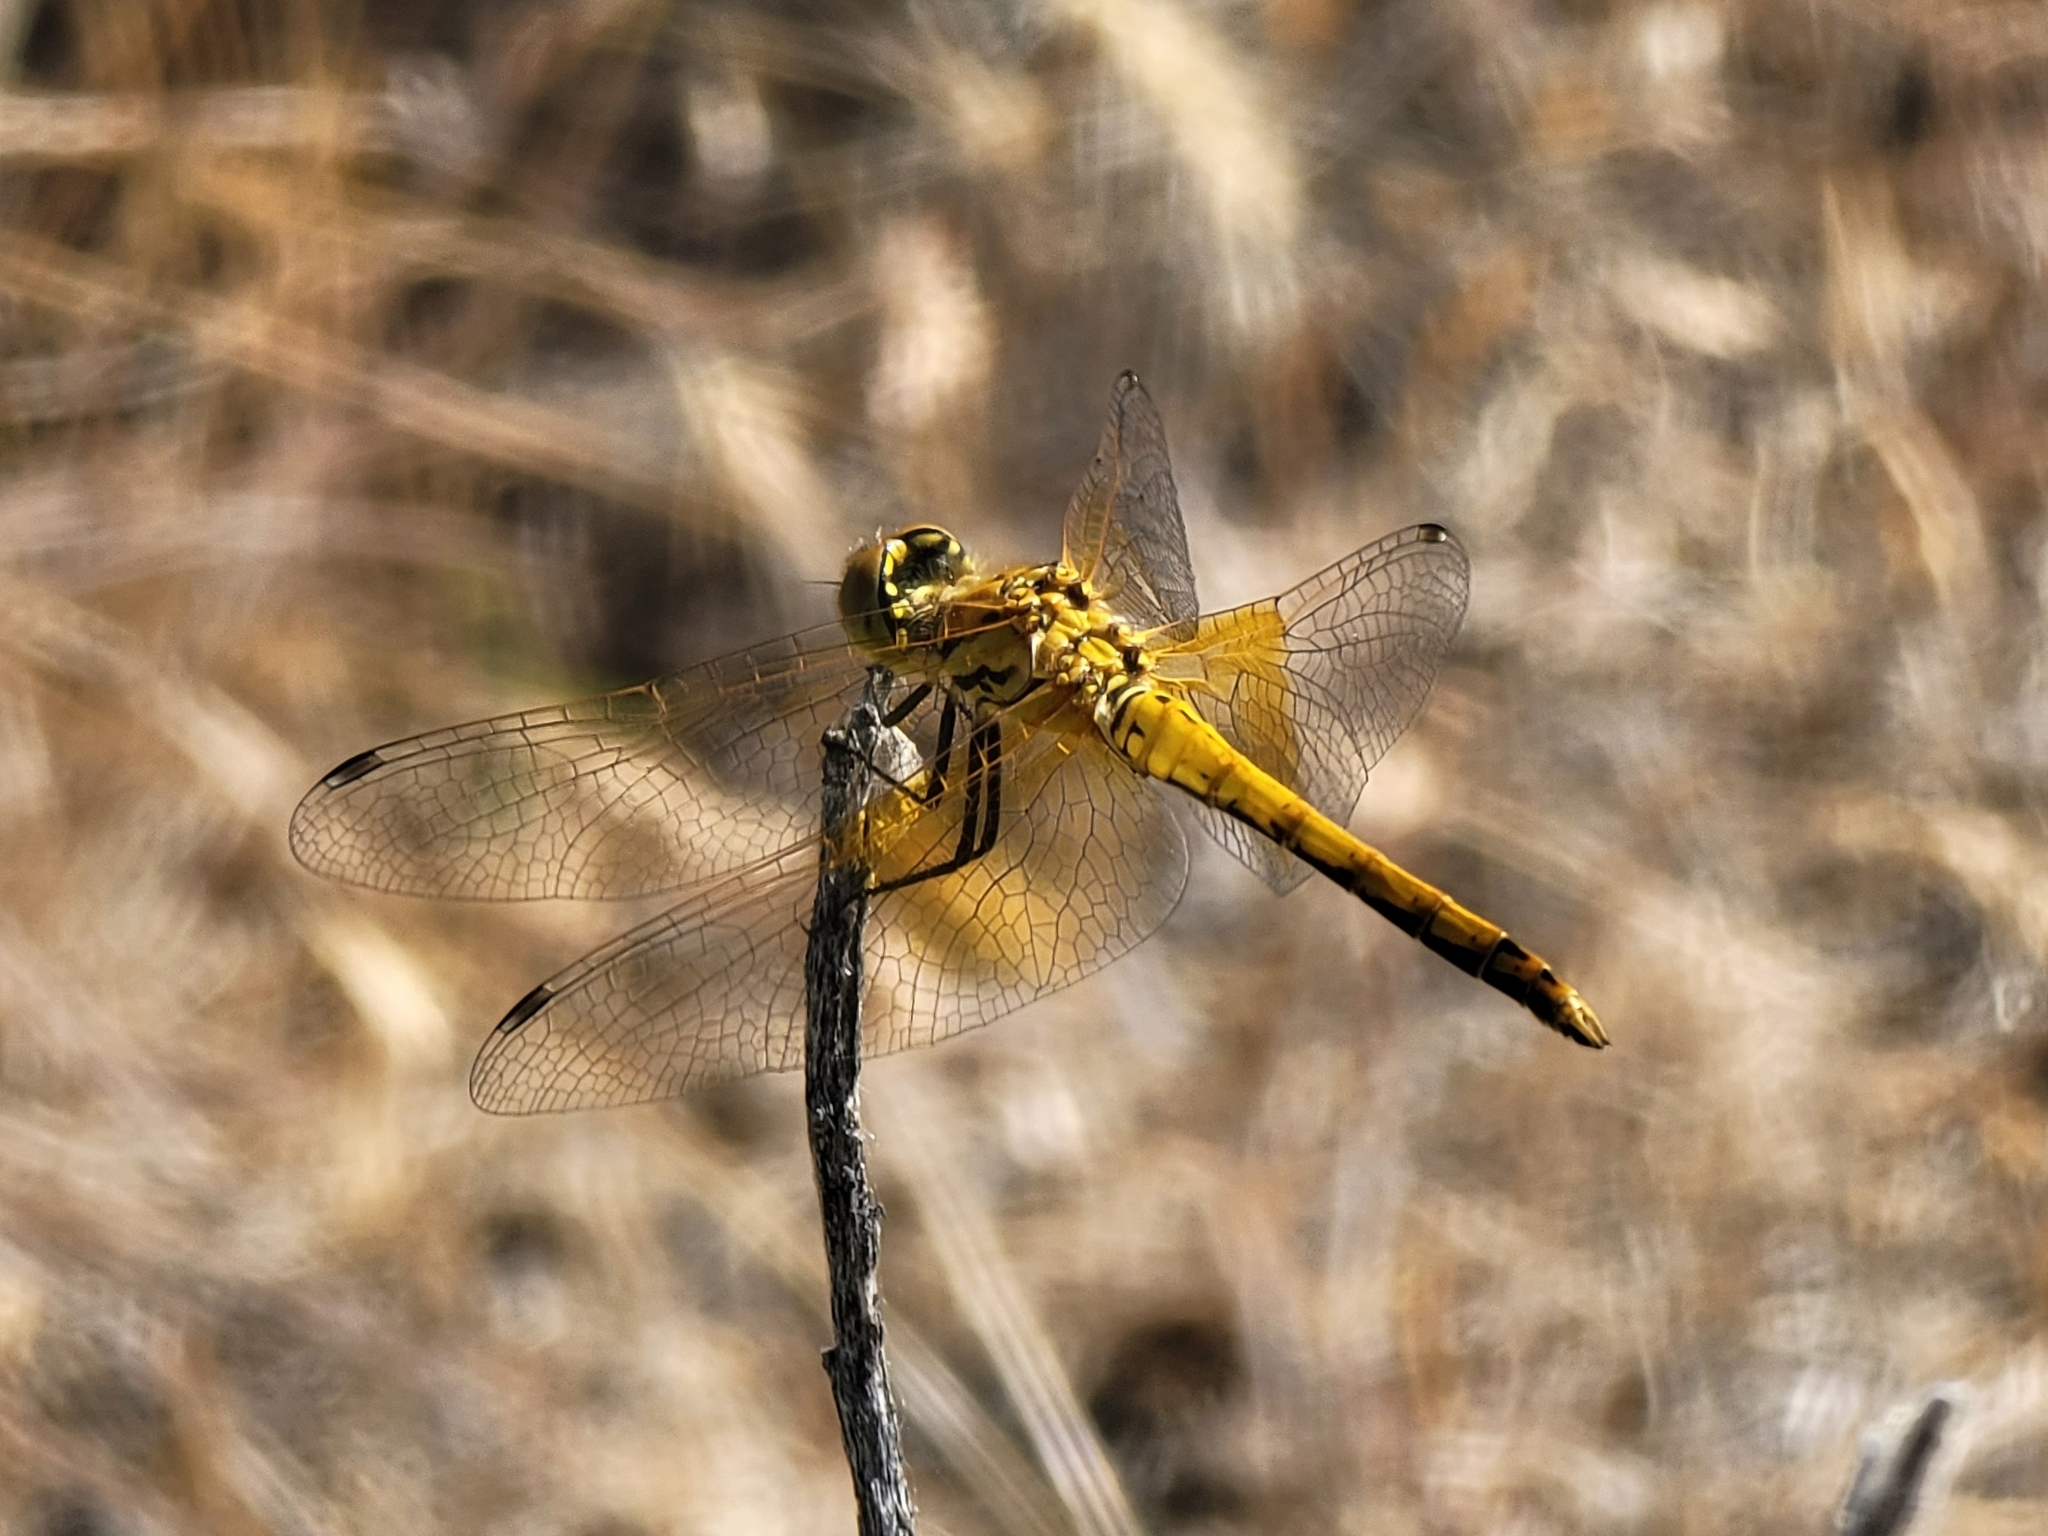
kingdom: Animalia
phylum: Arthropoda
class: Insecta
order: Odonata
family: Libellulidae
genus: Sympetrum
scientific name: Sympetrum semicinctum
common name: Band-winged meadowhawk
